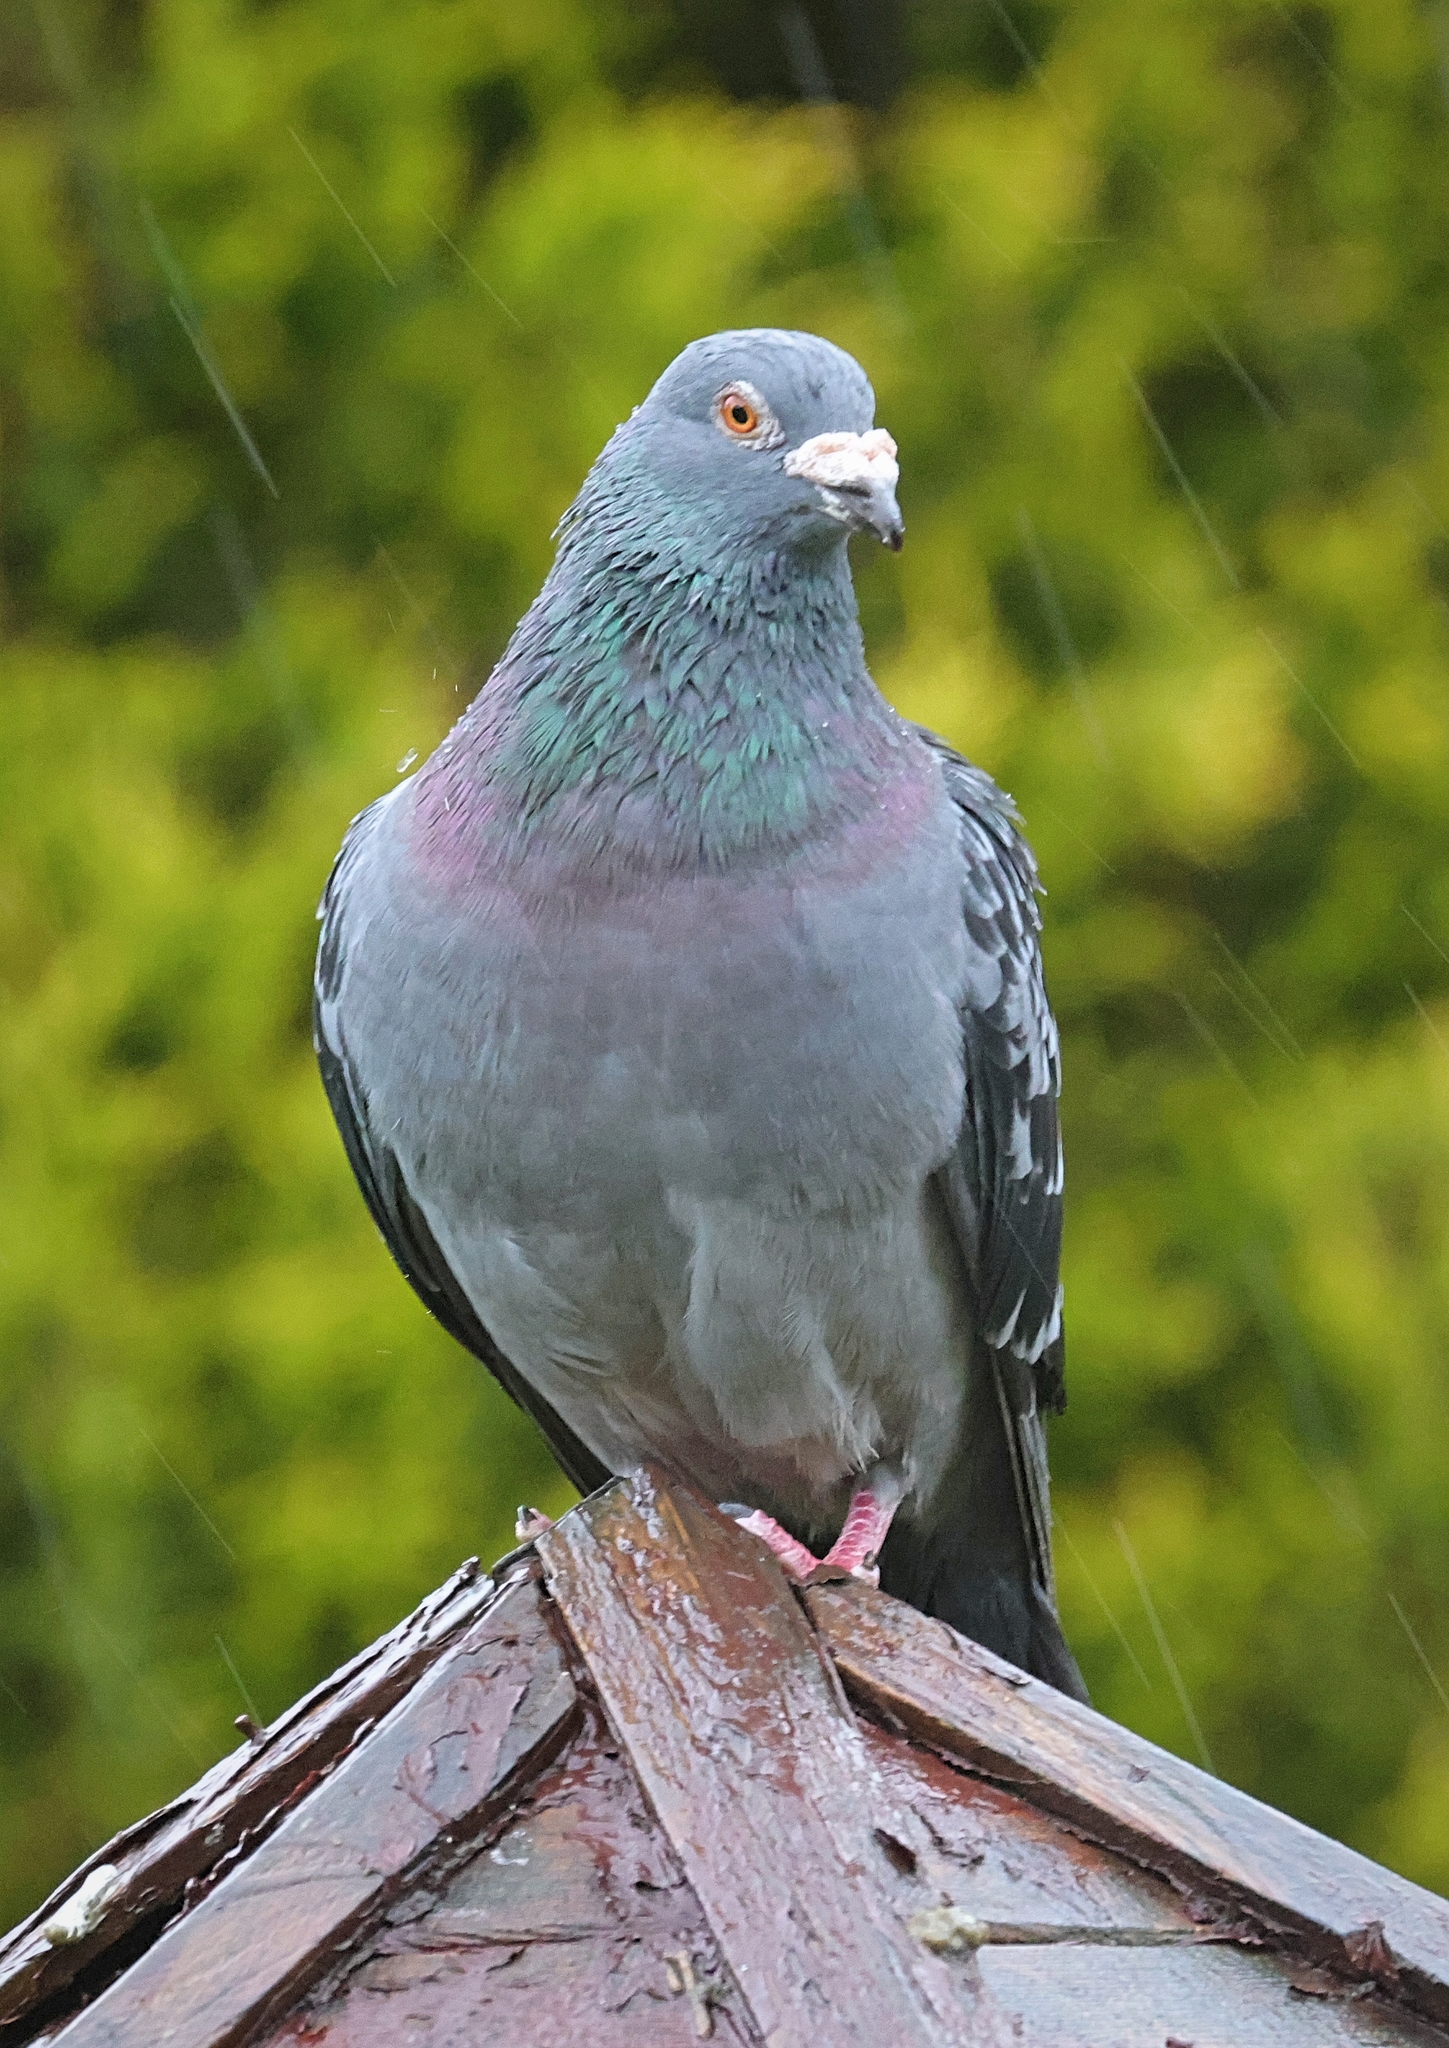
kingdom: Animalia
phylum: Chordata
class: Aves
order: Columbiformes
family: Columbidae
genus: Columba
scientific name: Columba livia
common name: Rock pigeon
